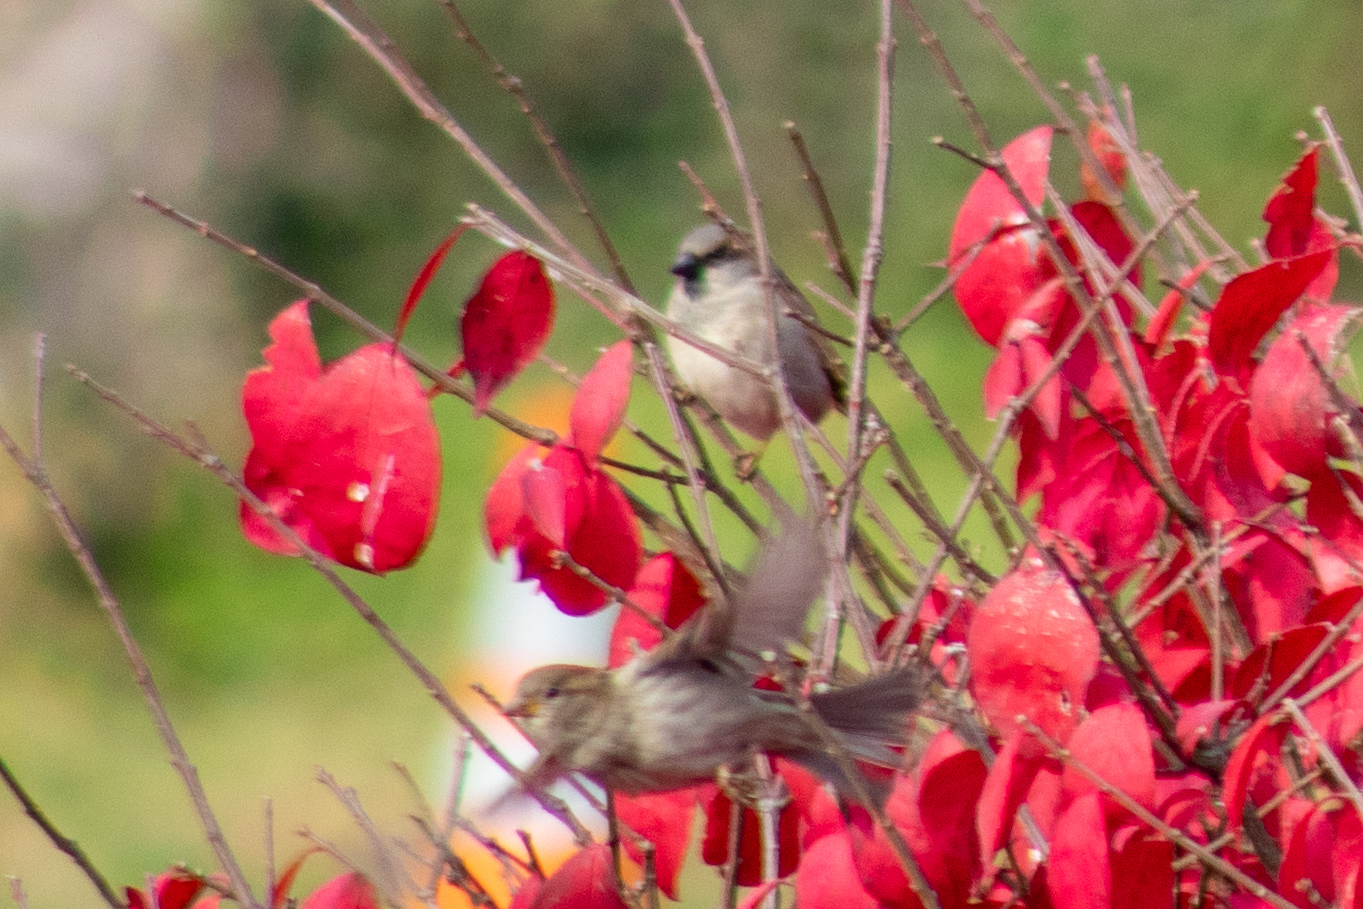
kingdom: Animalia
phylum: Chordata
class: Aves
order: Passeriformes
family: Passeridae
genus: Passer
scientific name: Passer domesticus
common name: House sparrow
